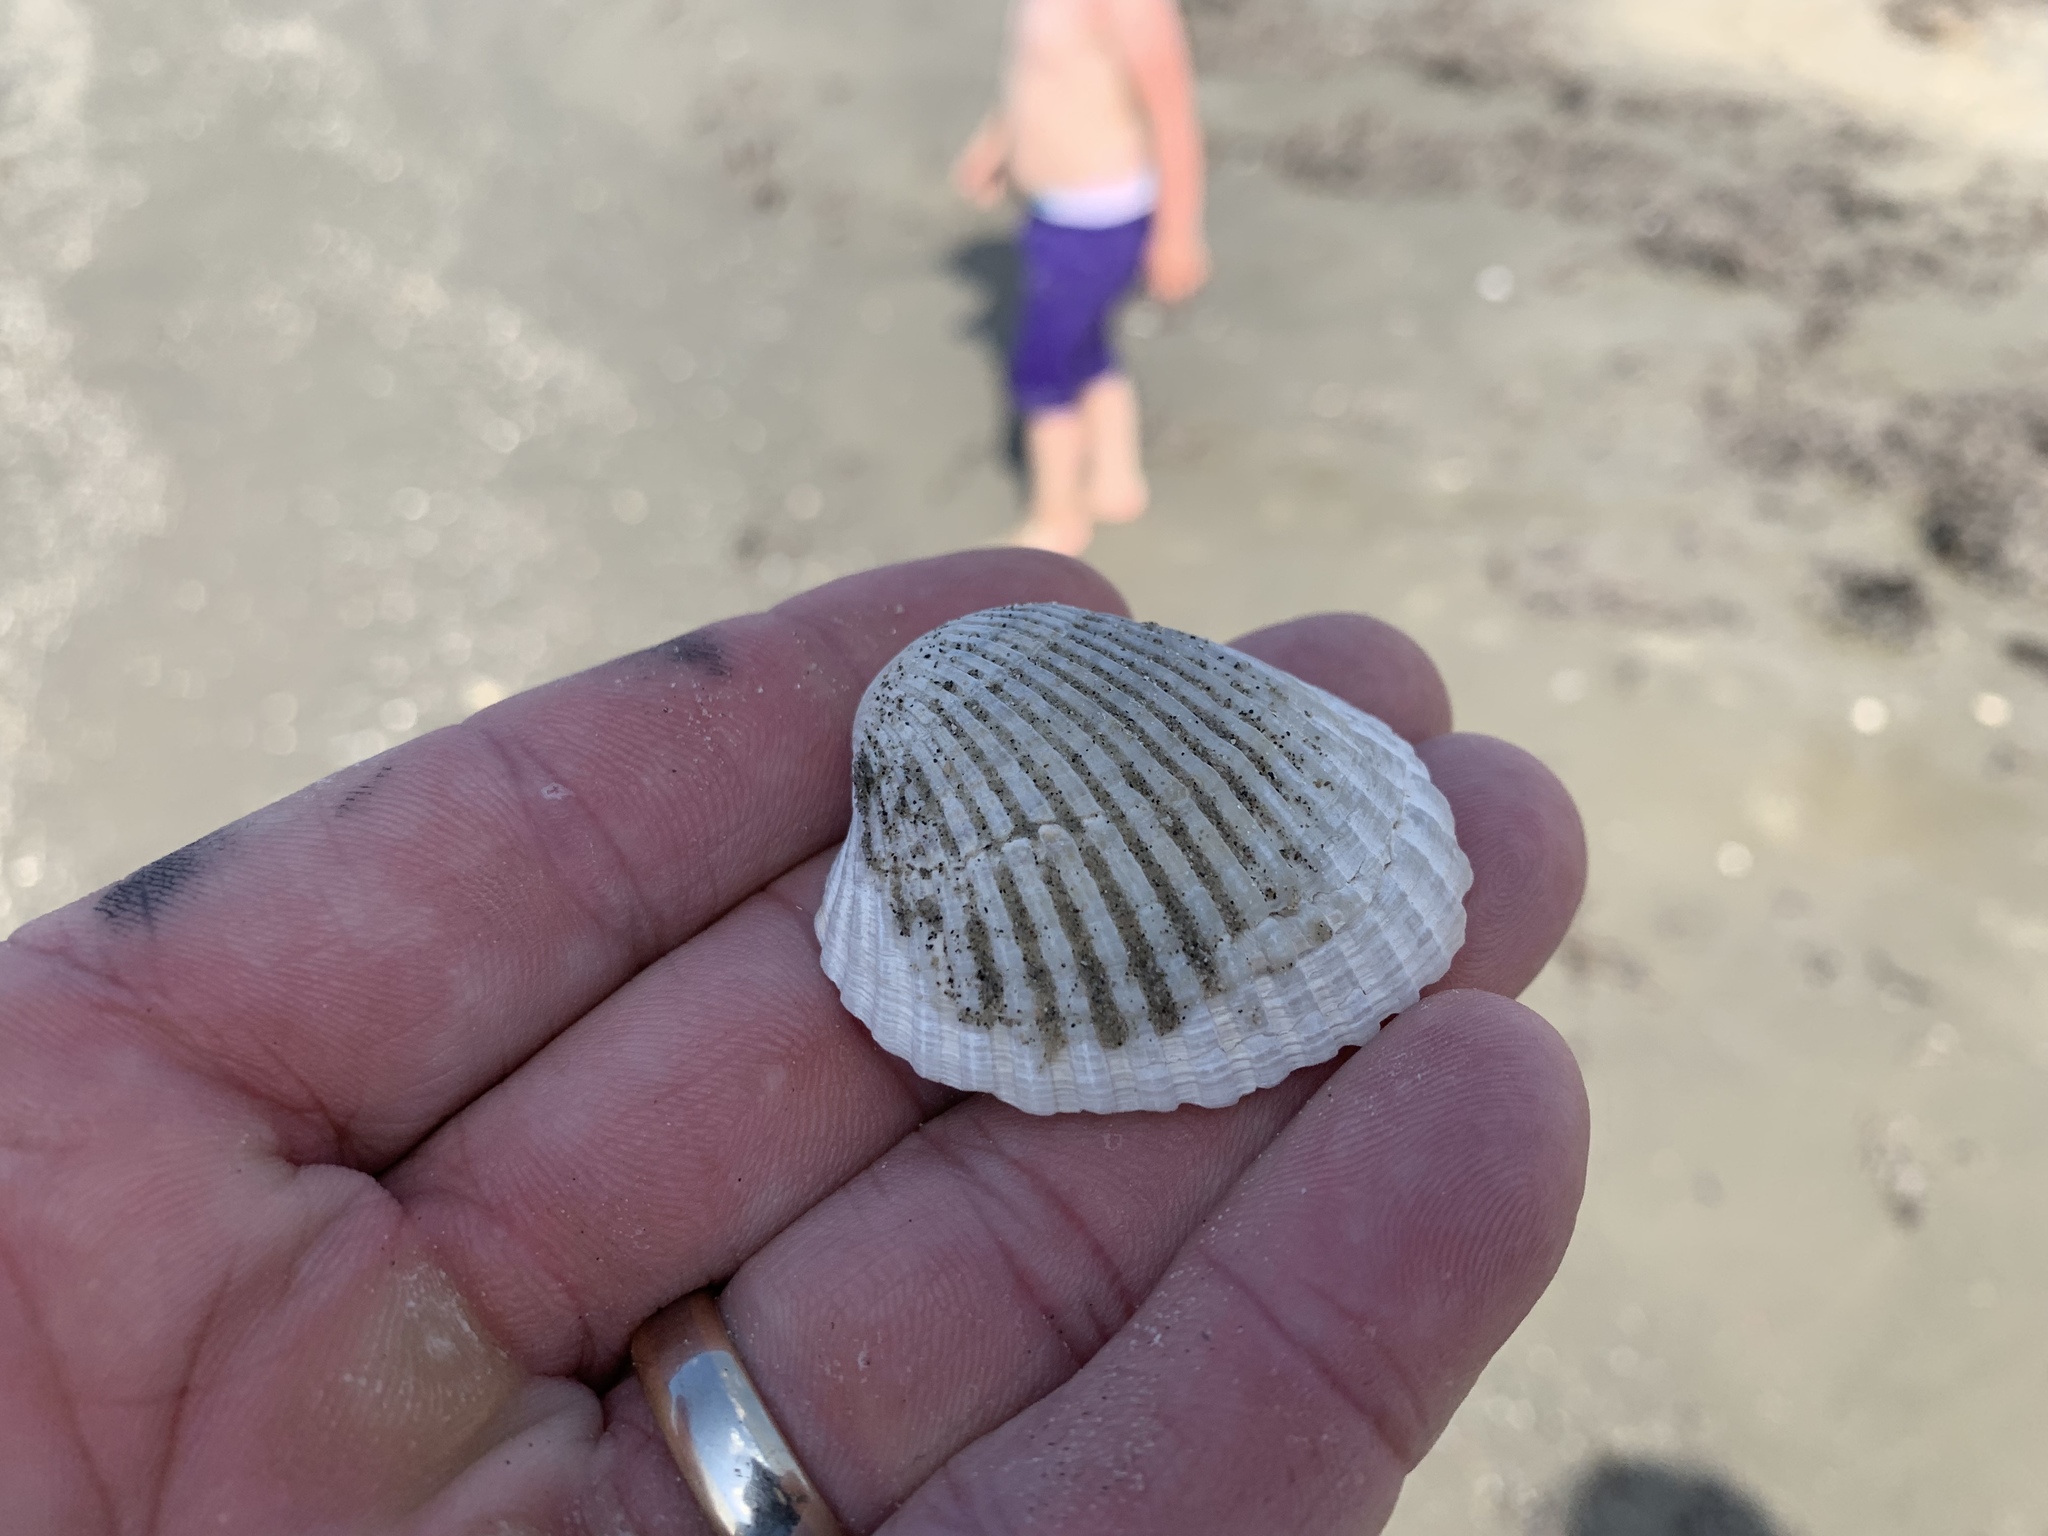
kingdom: Animalia
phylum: Mollusca
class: Bivalvia
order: Arcida
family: Arcidae
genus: Lunarca
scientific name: Lunarca ovalis
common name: Blood ark
